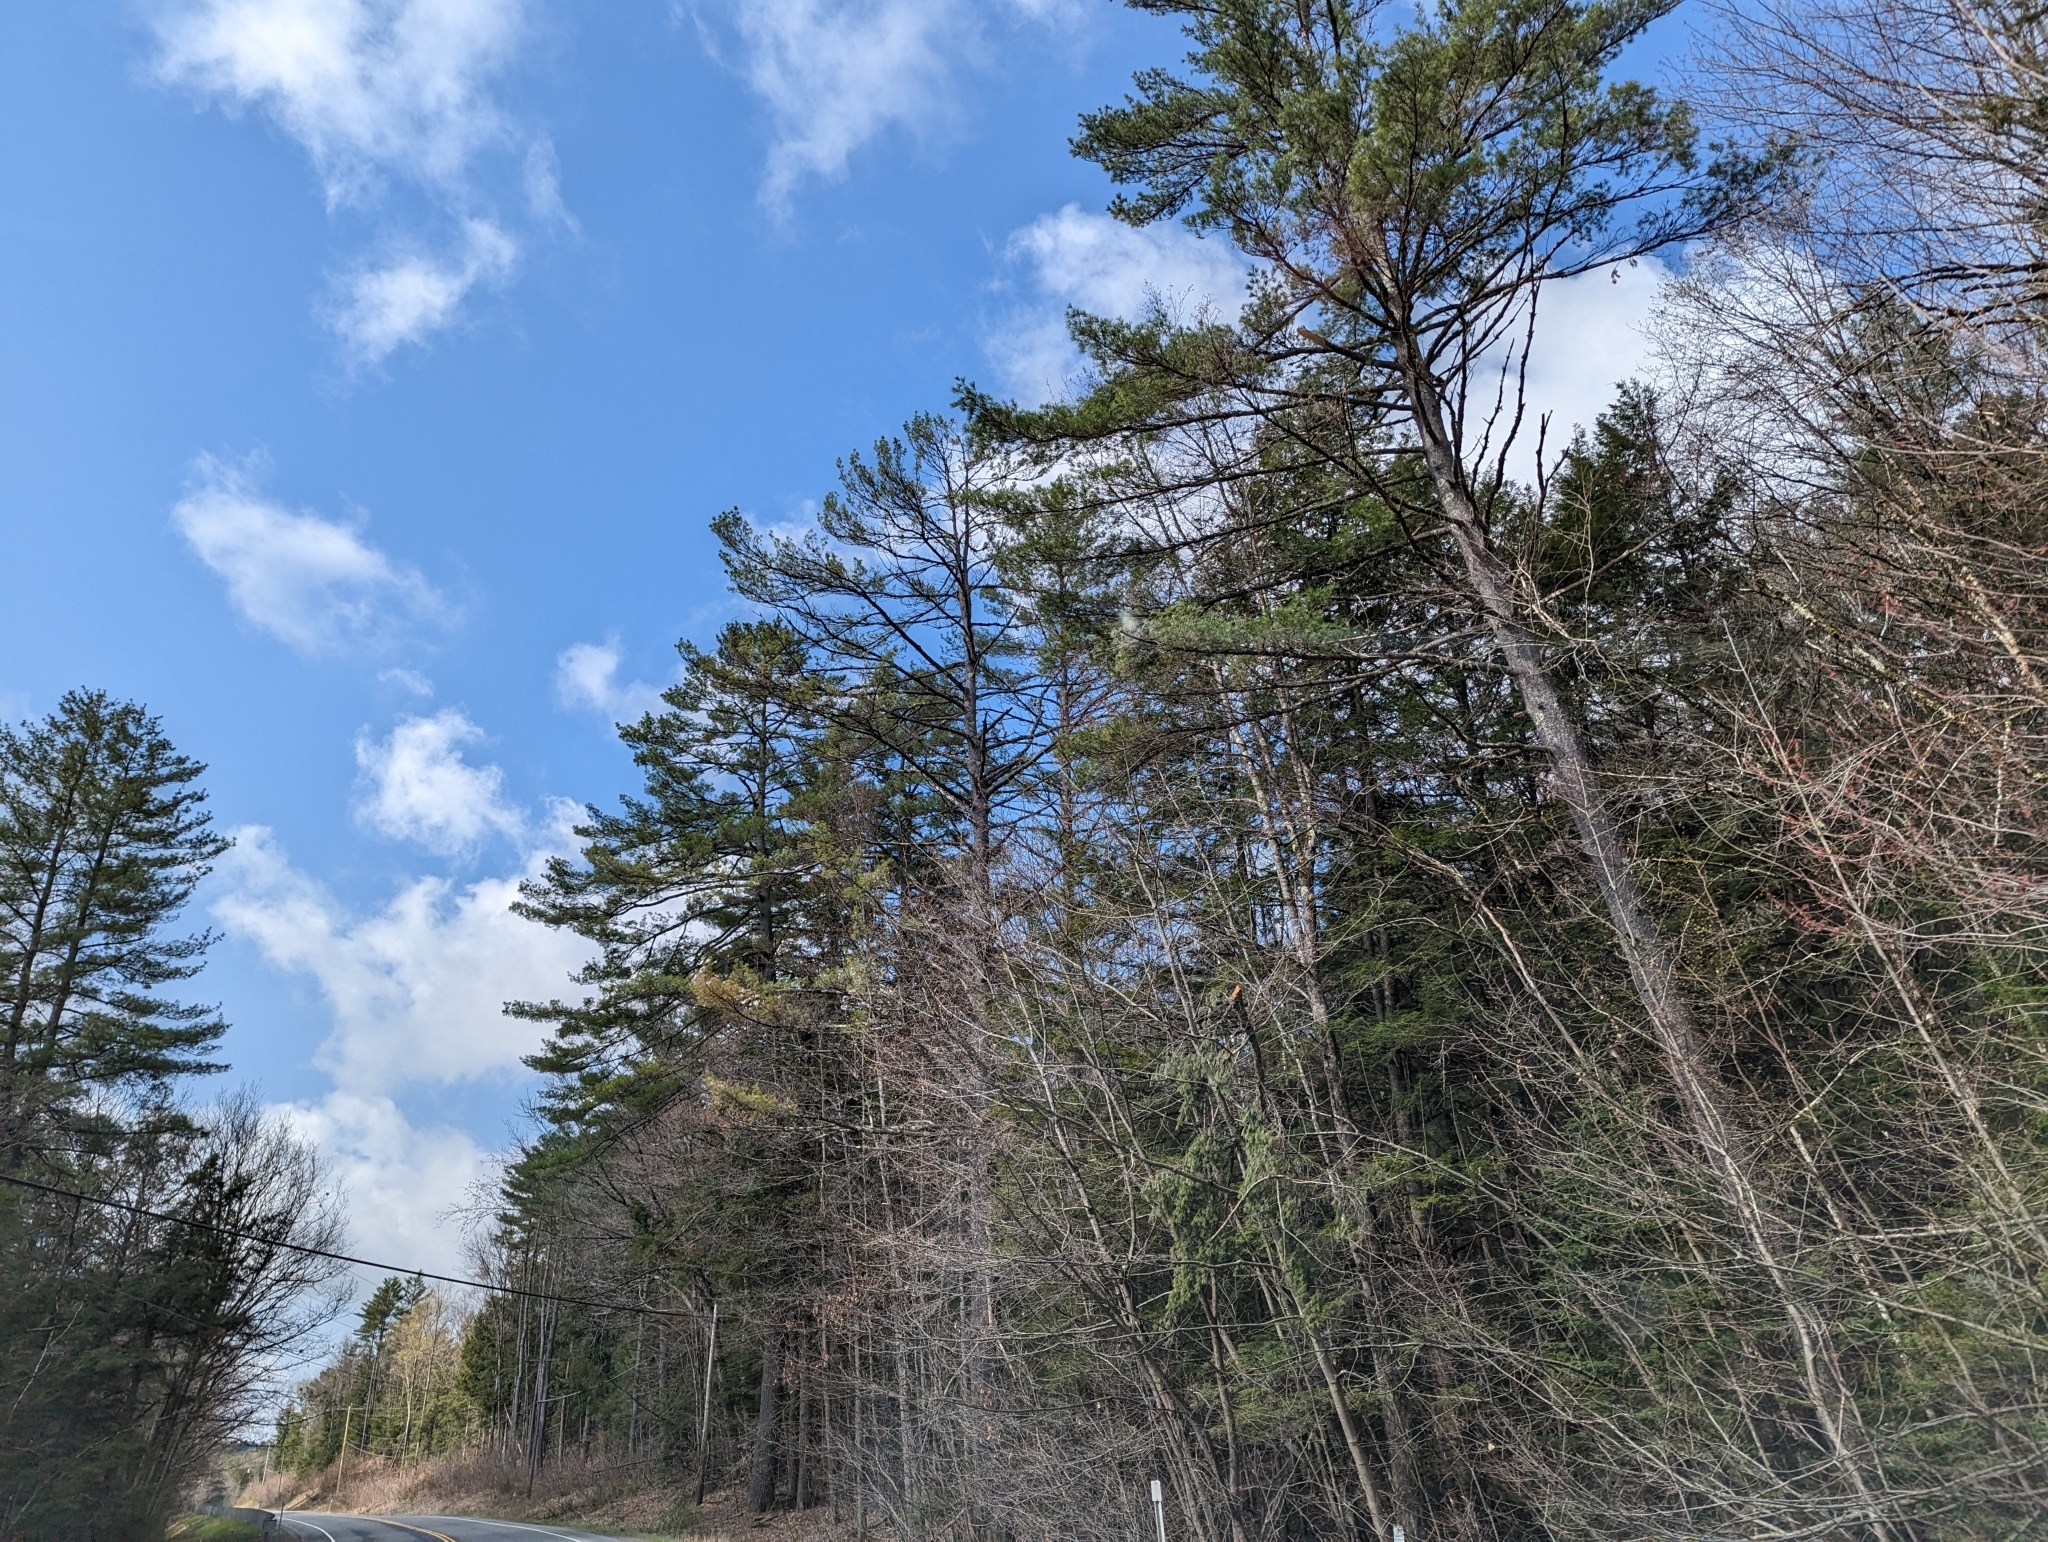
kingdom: Plantae
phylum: Tracheophyta
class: Pinopsida
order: Pinales
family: Pinaceae
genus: Pinus
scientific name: Pinus strobus
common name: Weymouth pine
